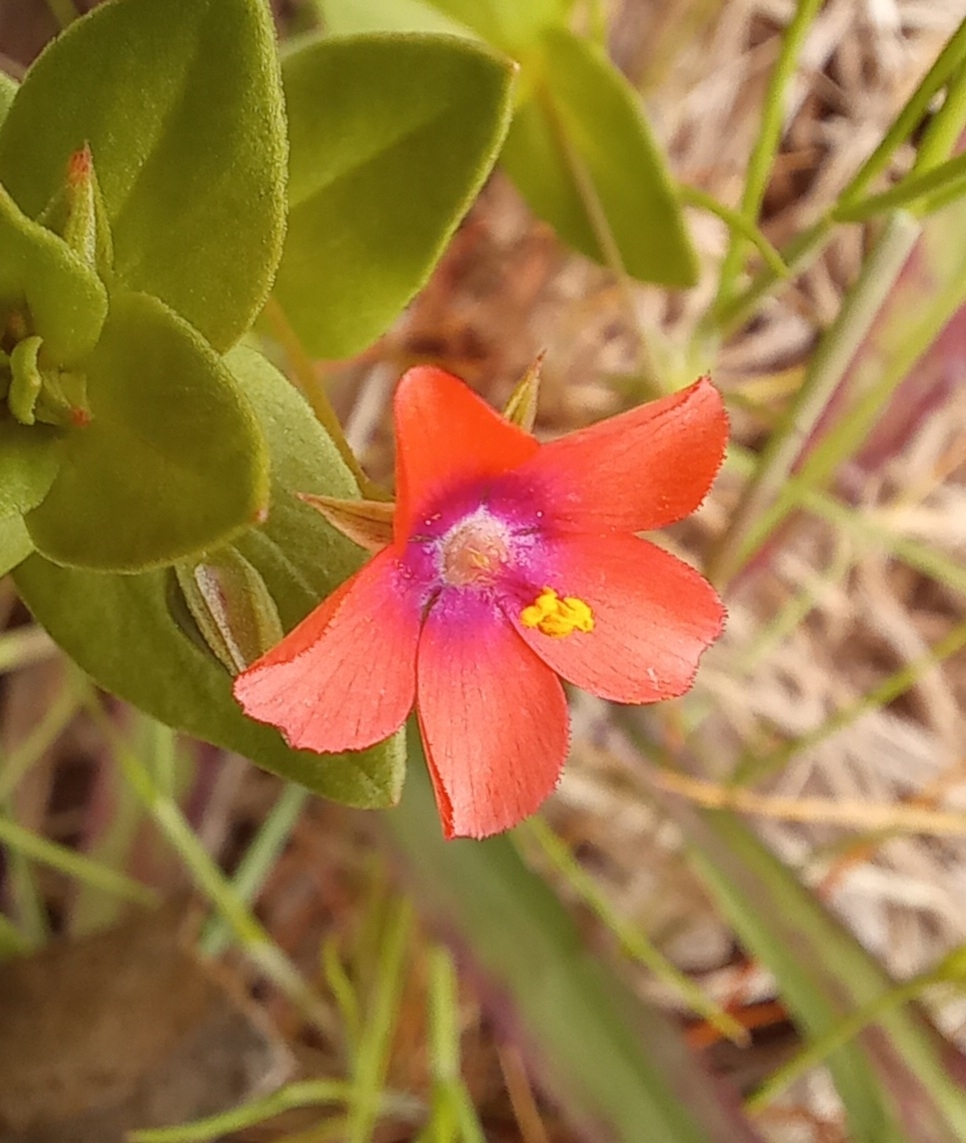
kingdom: Plantae
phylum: Tracheophyta
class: Magnoliopsida
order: Ericales
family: Primulaceae
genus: Lysimachia
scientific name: Lysimachia arvensis
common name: Scarlet pimpernel
